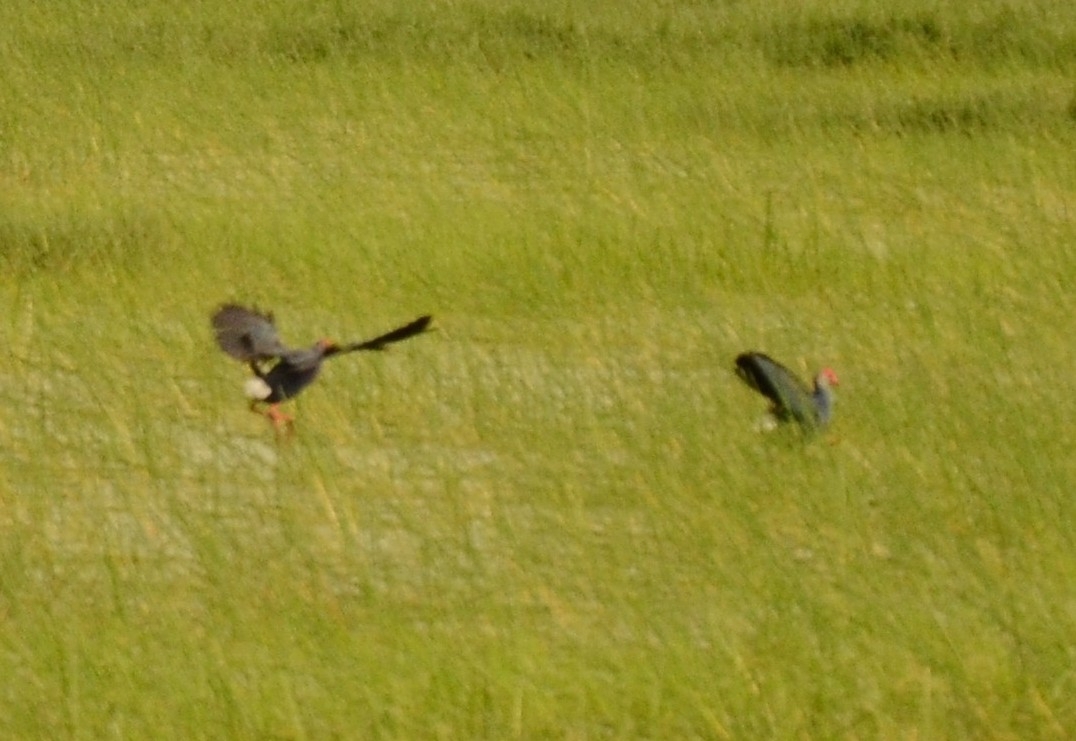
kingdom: Animalia
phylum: Chordata
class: Aves
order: Gruiformes
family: Rallidae
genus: Porphyrio
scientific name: Porphyrio porphyrio
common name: Purple swamphen
